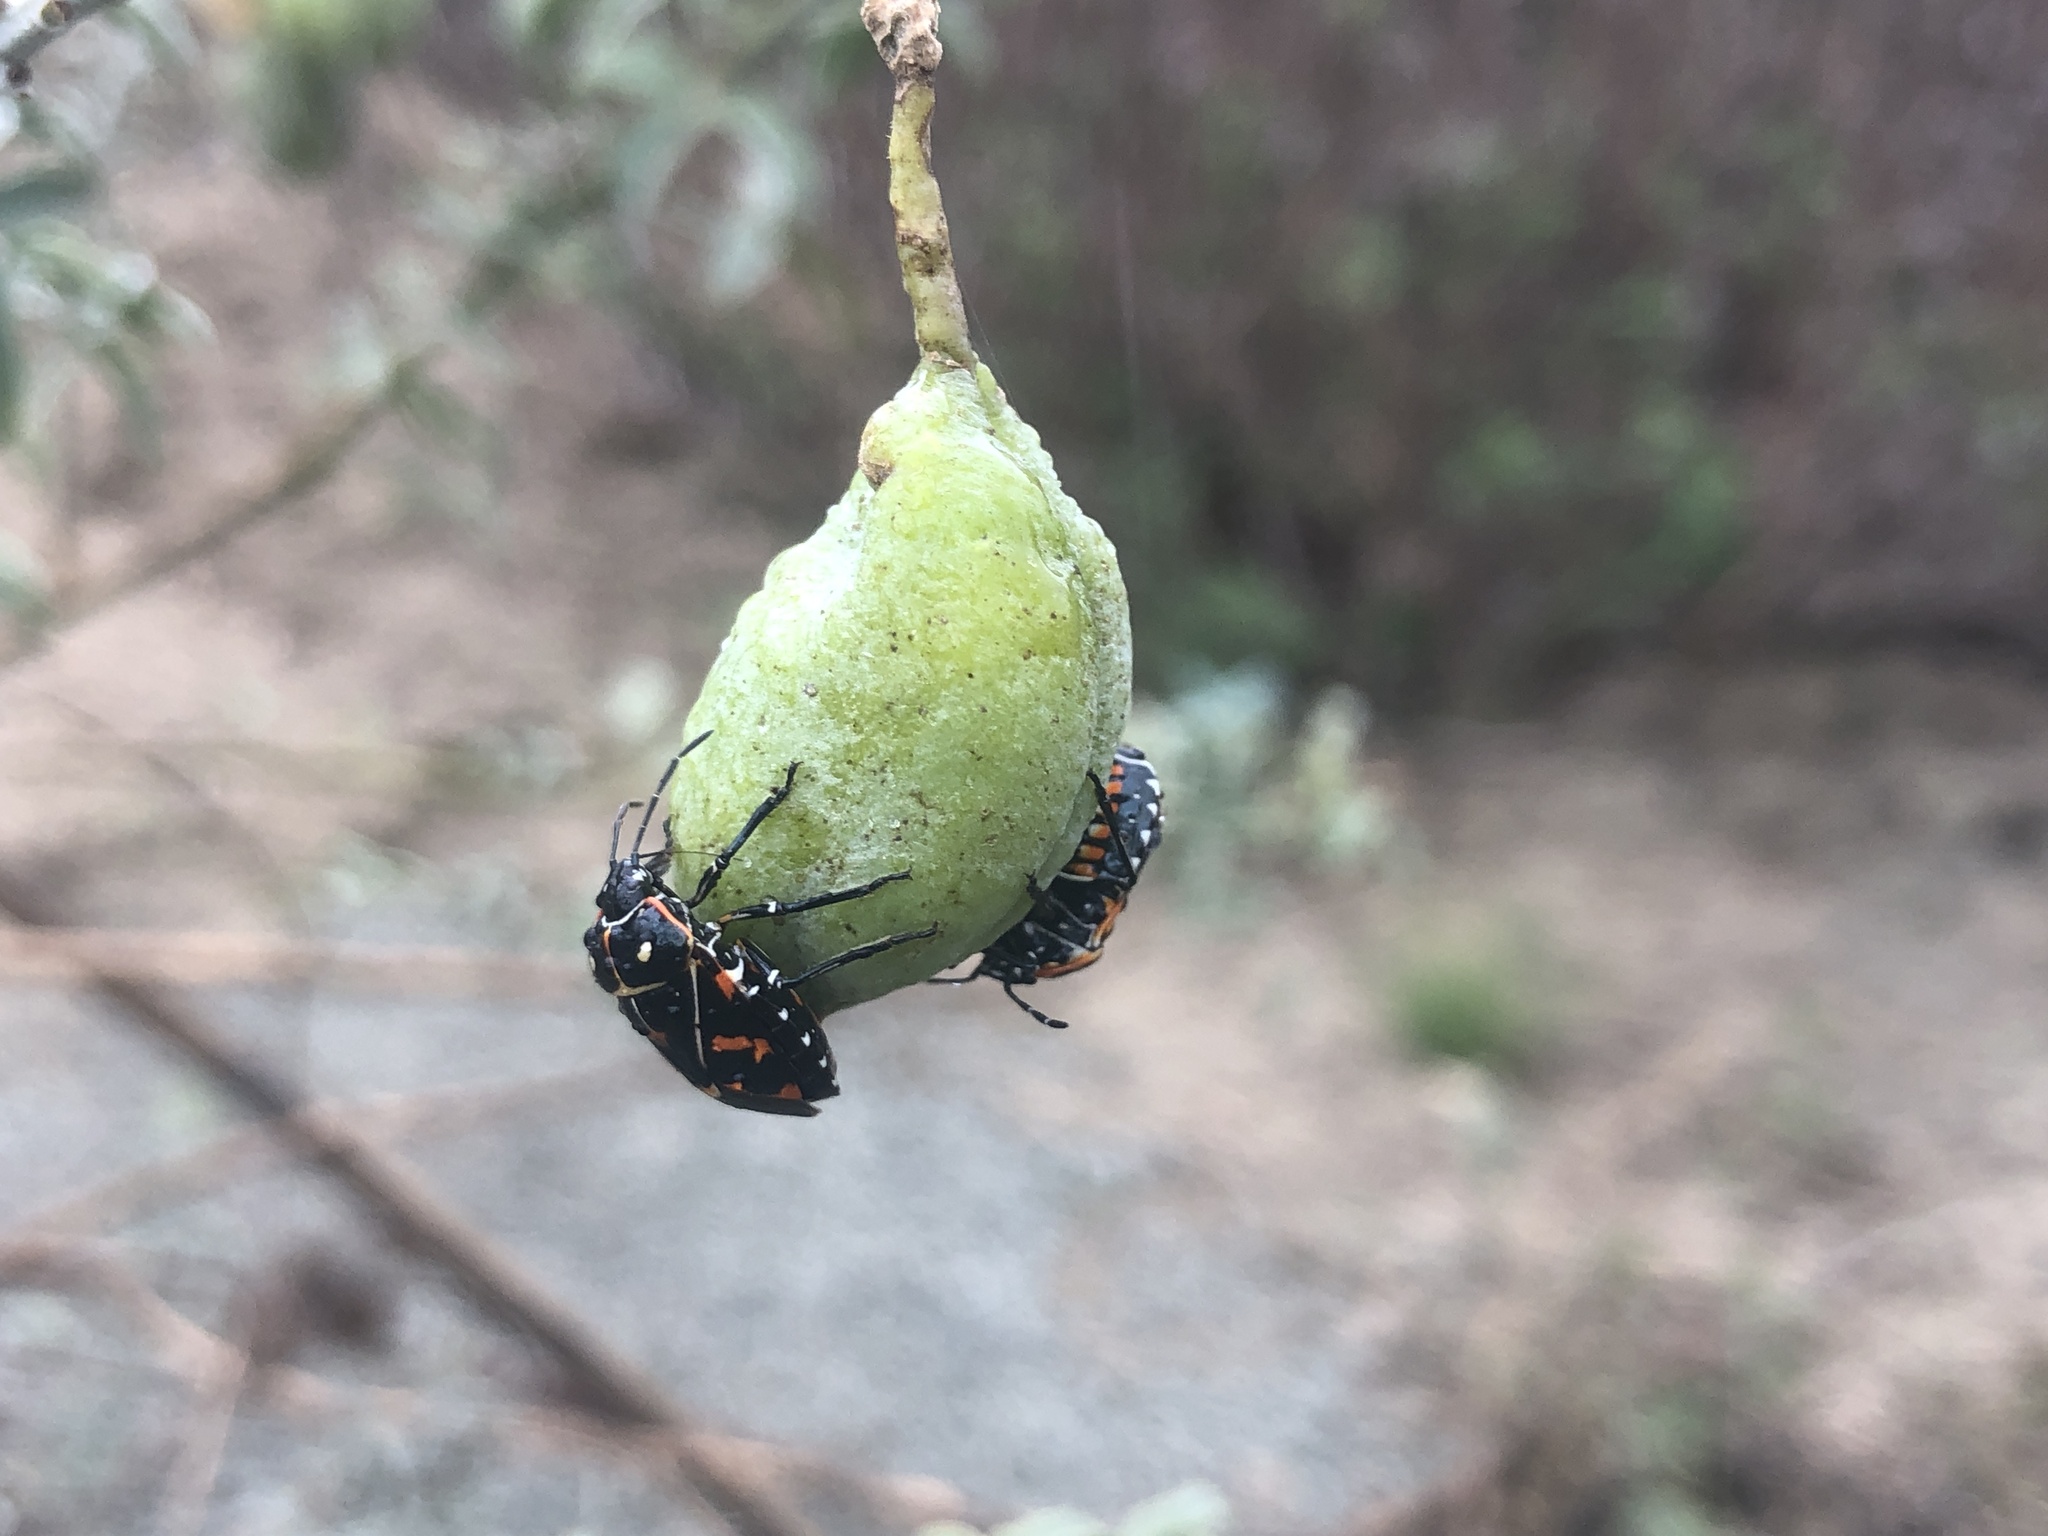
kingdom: Animalia
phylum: Arthropoda
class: Insecta
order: Hemiptera
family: Pentatomidae
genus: Murgantia
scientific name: Murgantia histrionica
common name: Harlequin bug
